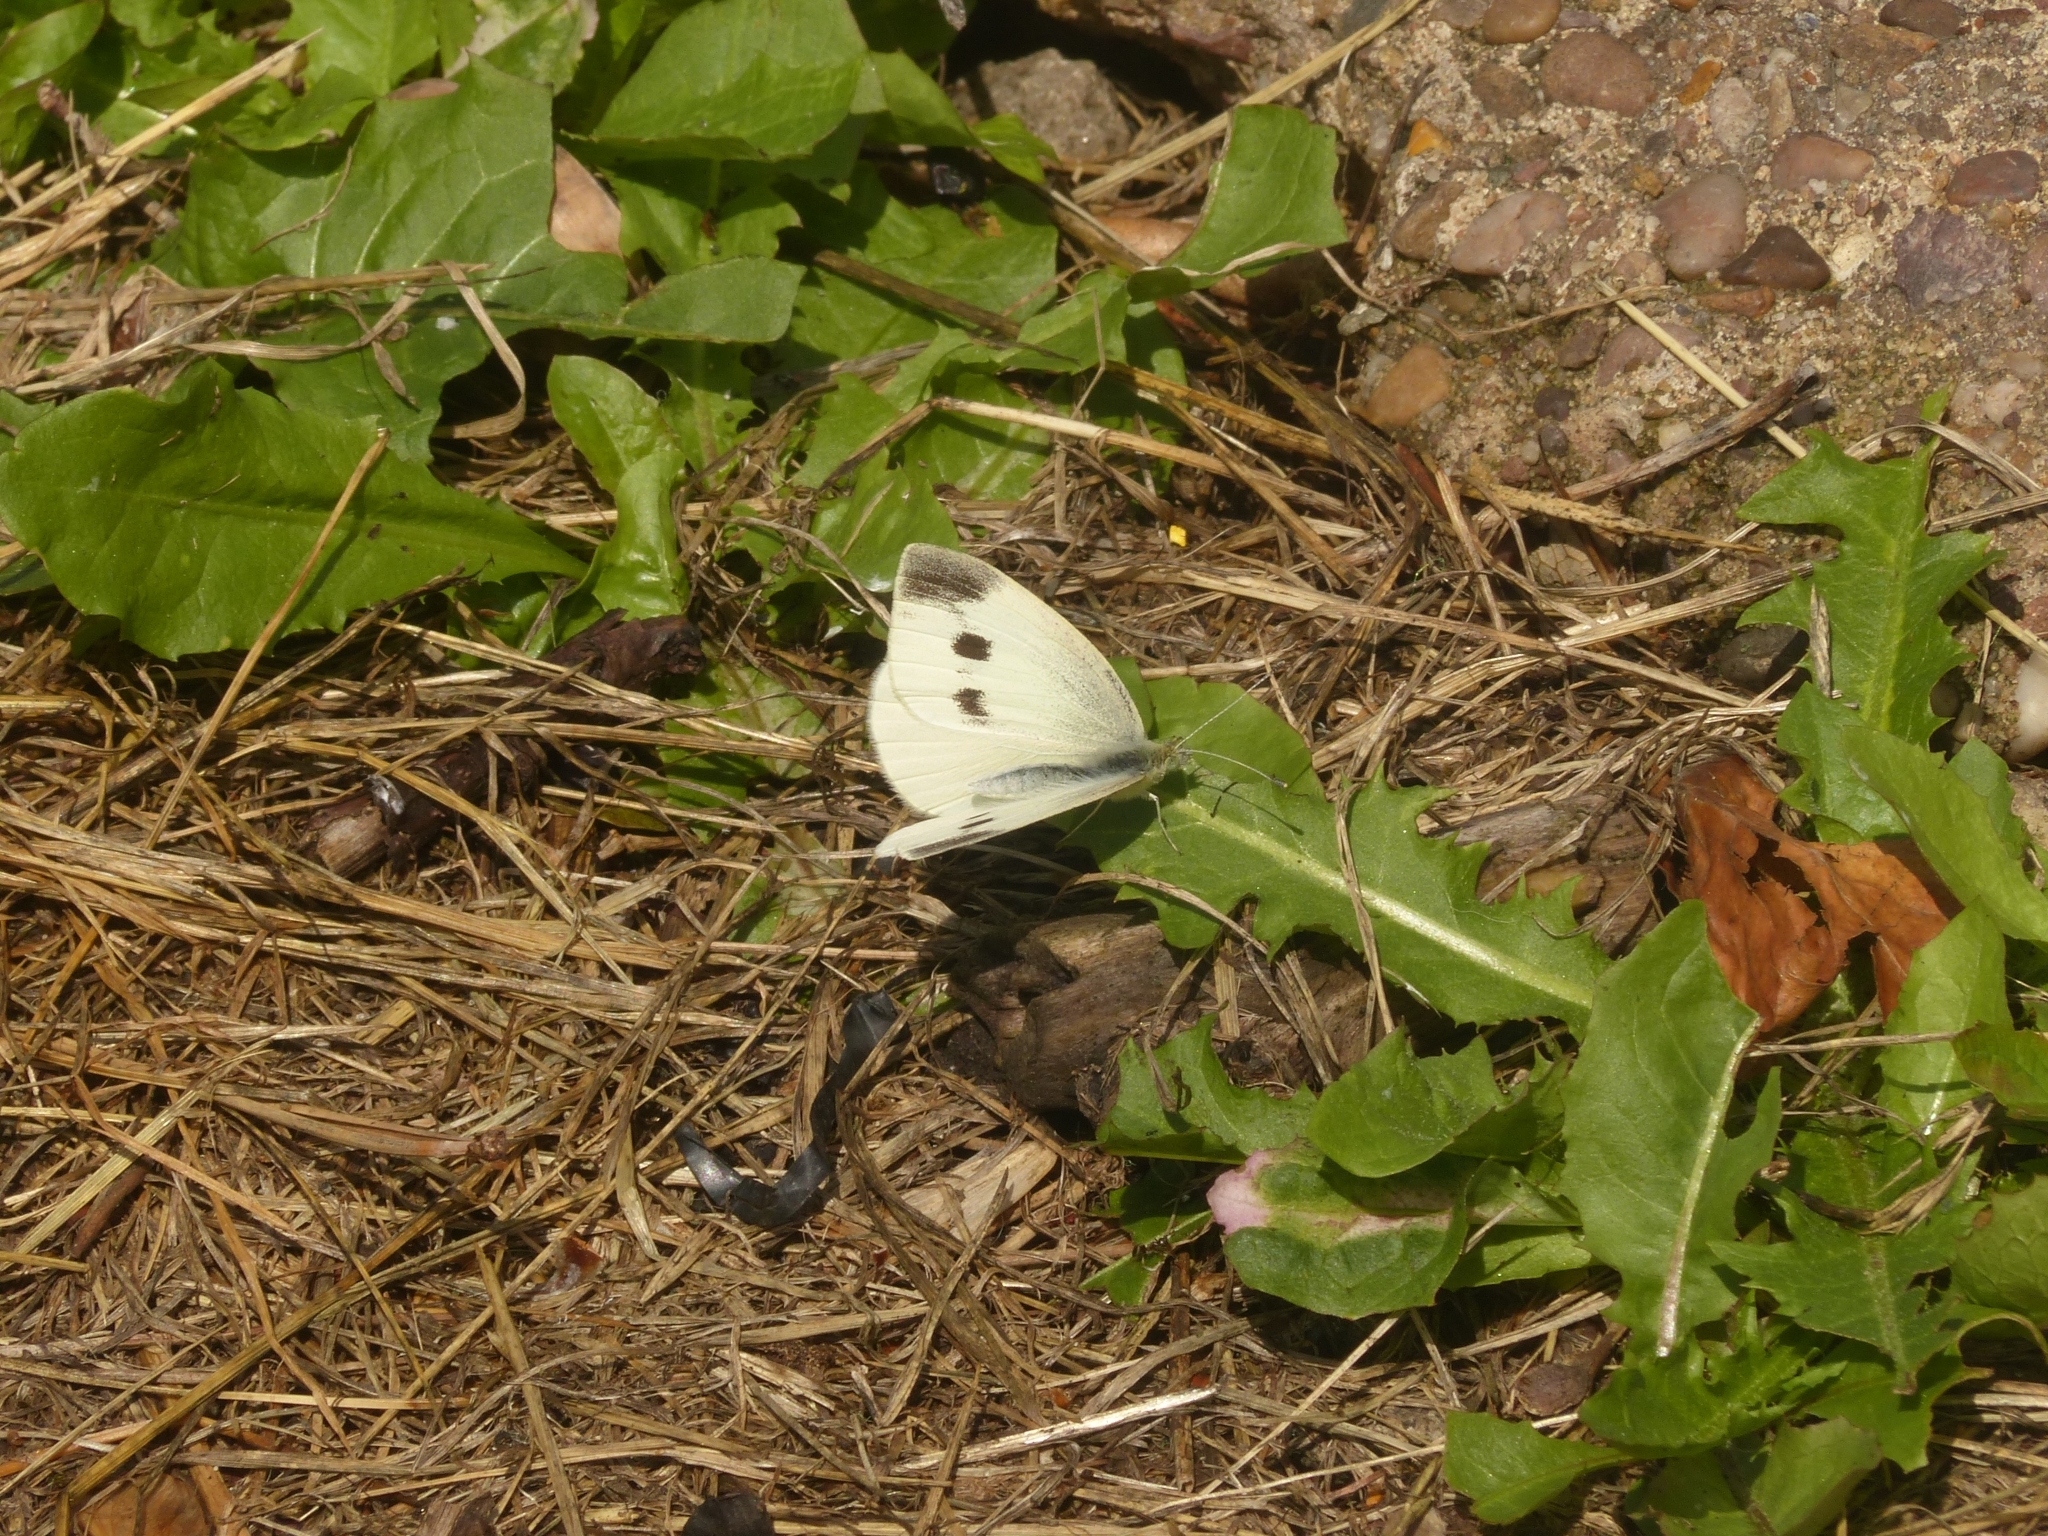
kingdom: Animalia
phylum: Arthropoda
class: Insecta
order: Lepidoptera
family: Pieridae
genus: Pieris
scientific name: Pieris rapae
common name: Small white
